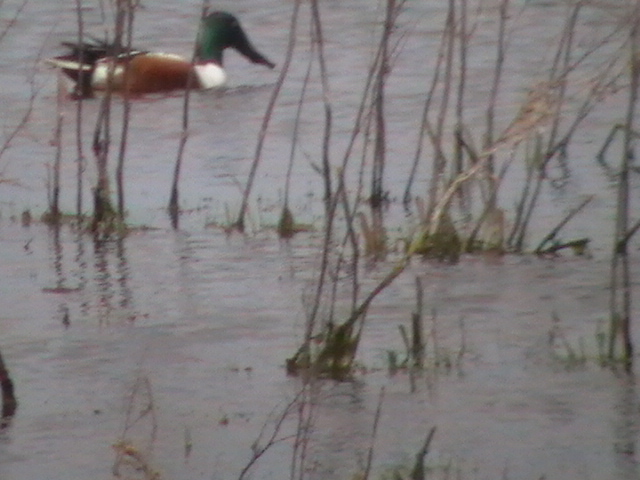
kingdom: Animalia
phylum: Chordata
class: Aves
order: Anseriformes
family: Anatidae
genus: Spatula
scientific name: Spatula clypeata
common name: Northern shoveler
